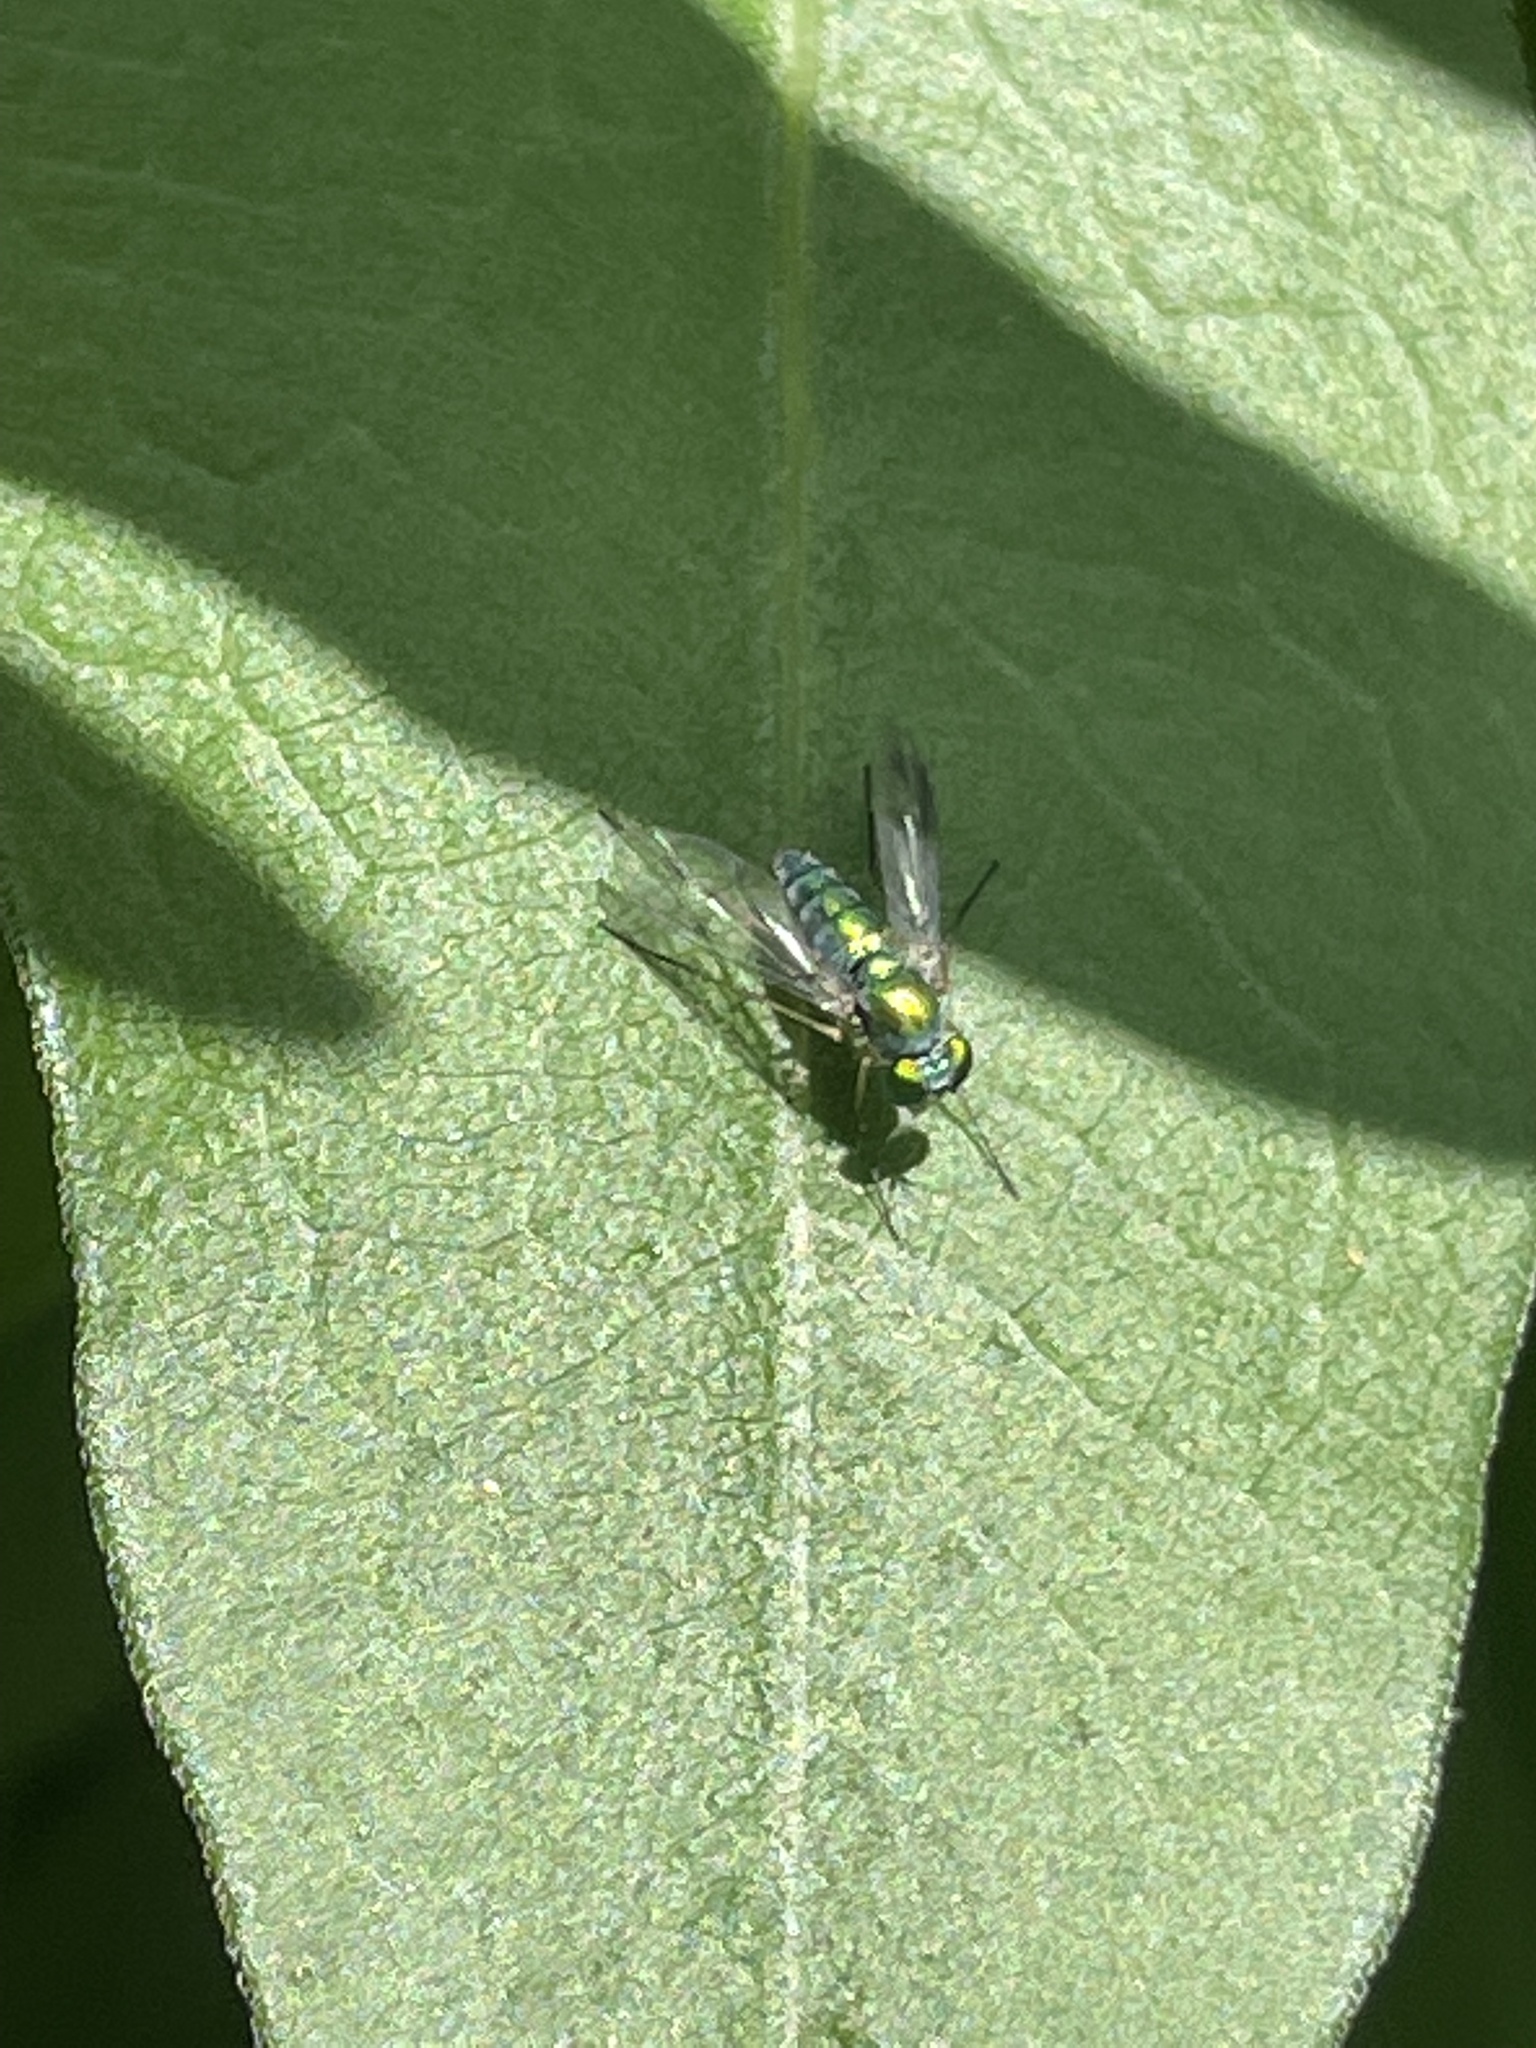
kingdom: Animalia
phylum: Arthropoda
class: Insecta
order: Diptera
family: Dolichopodidae
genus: Condylostylus
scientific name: Condylostylus
